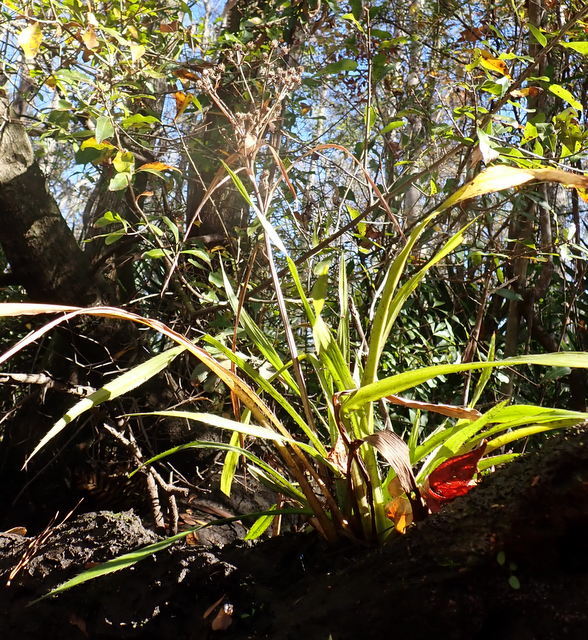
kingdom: Plantae
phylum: Tracheophyta
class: Magnoliopsida
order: Apiales
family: Apiaceae
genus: Eryngium
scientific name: Eryngium yuccifolium
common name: Button eryngo
